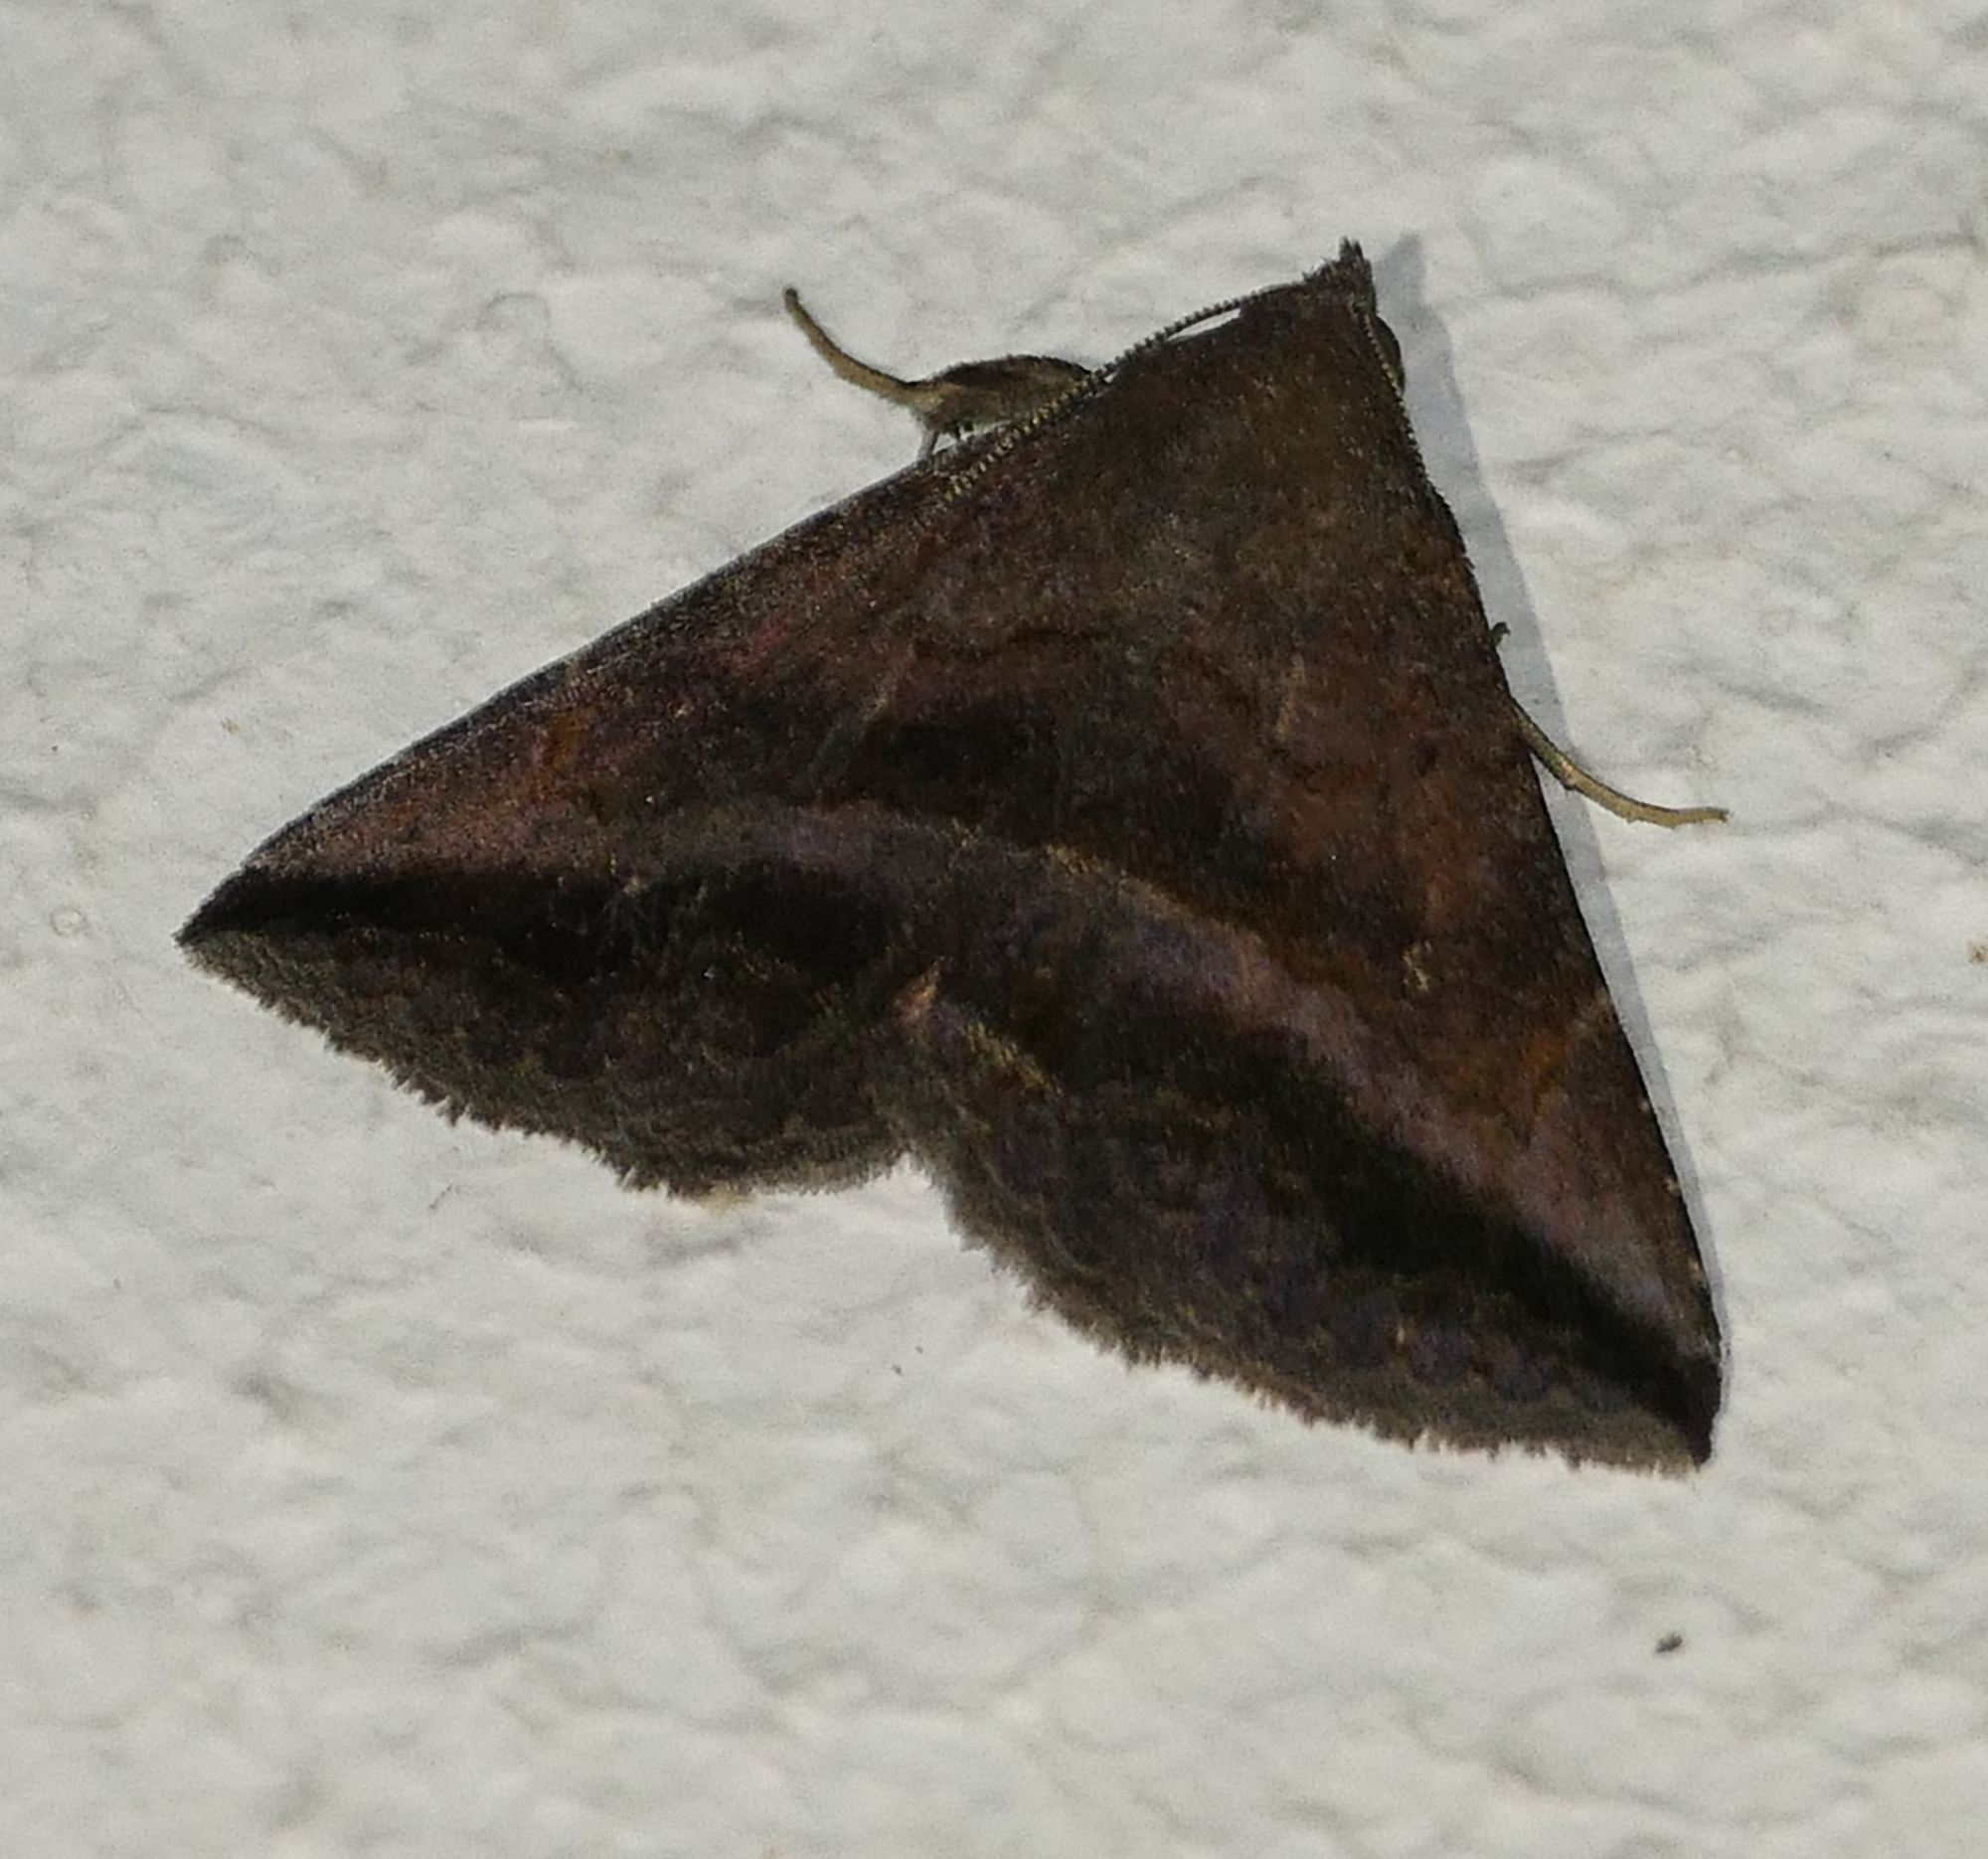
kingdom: Animalia
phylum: Arthropoda
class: Insecta
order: Lepidoptera
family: Erebidae
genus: Lesmone
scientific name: Lesmone detrahens
